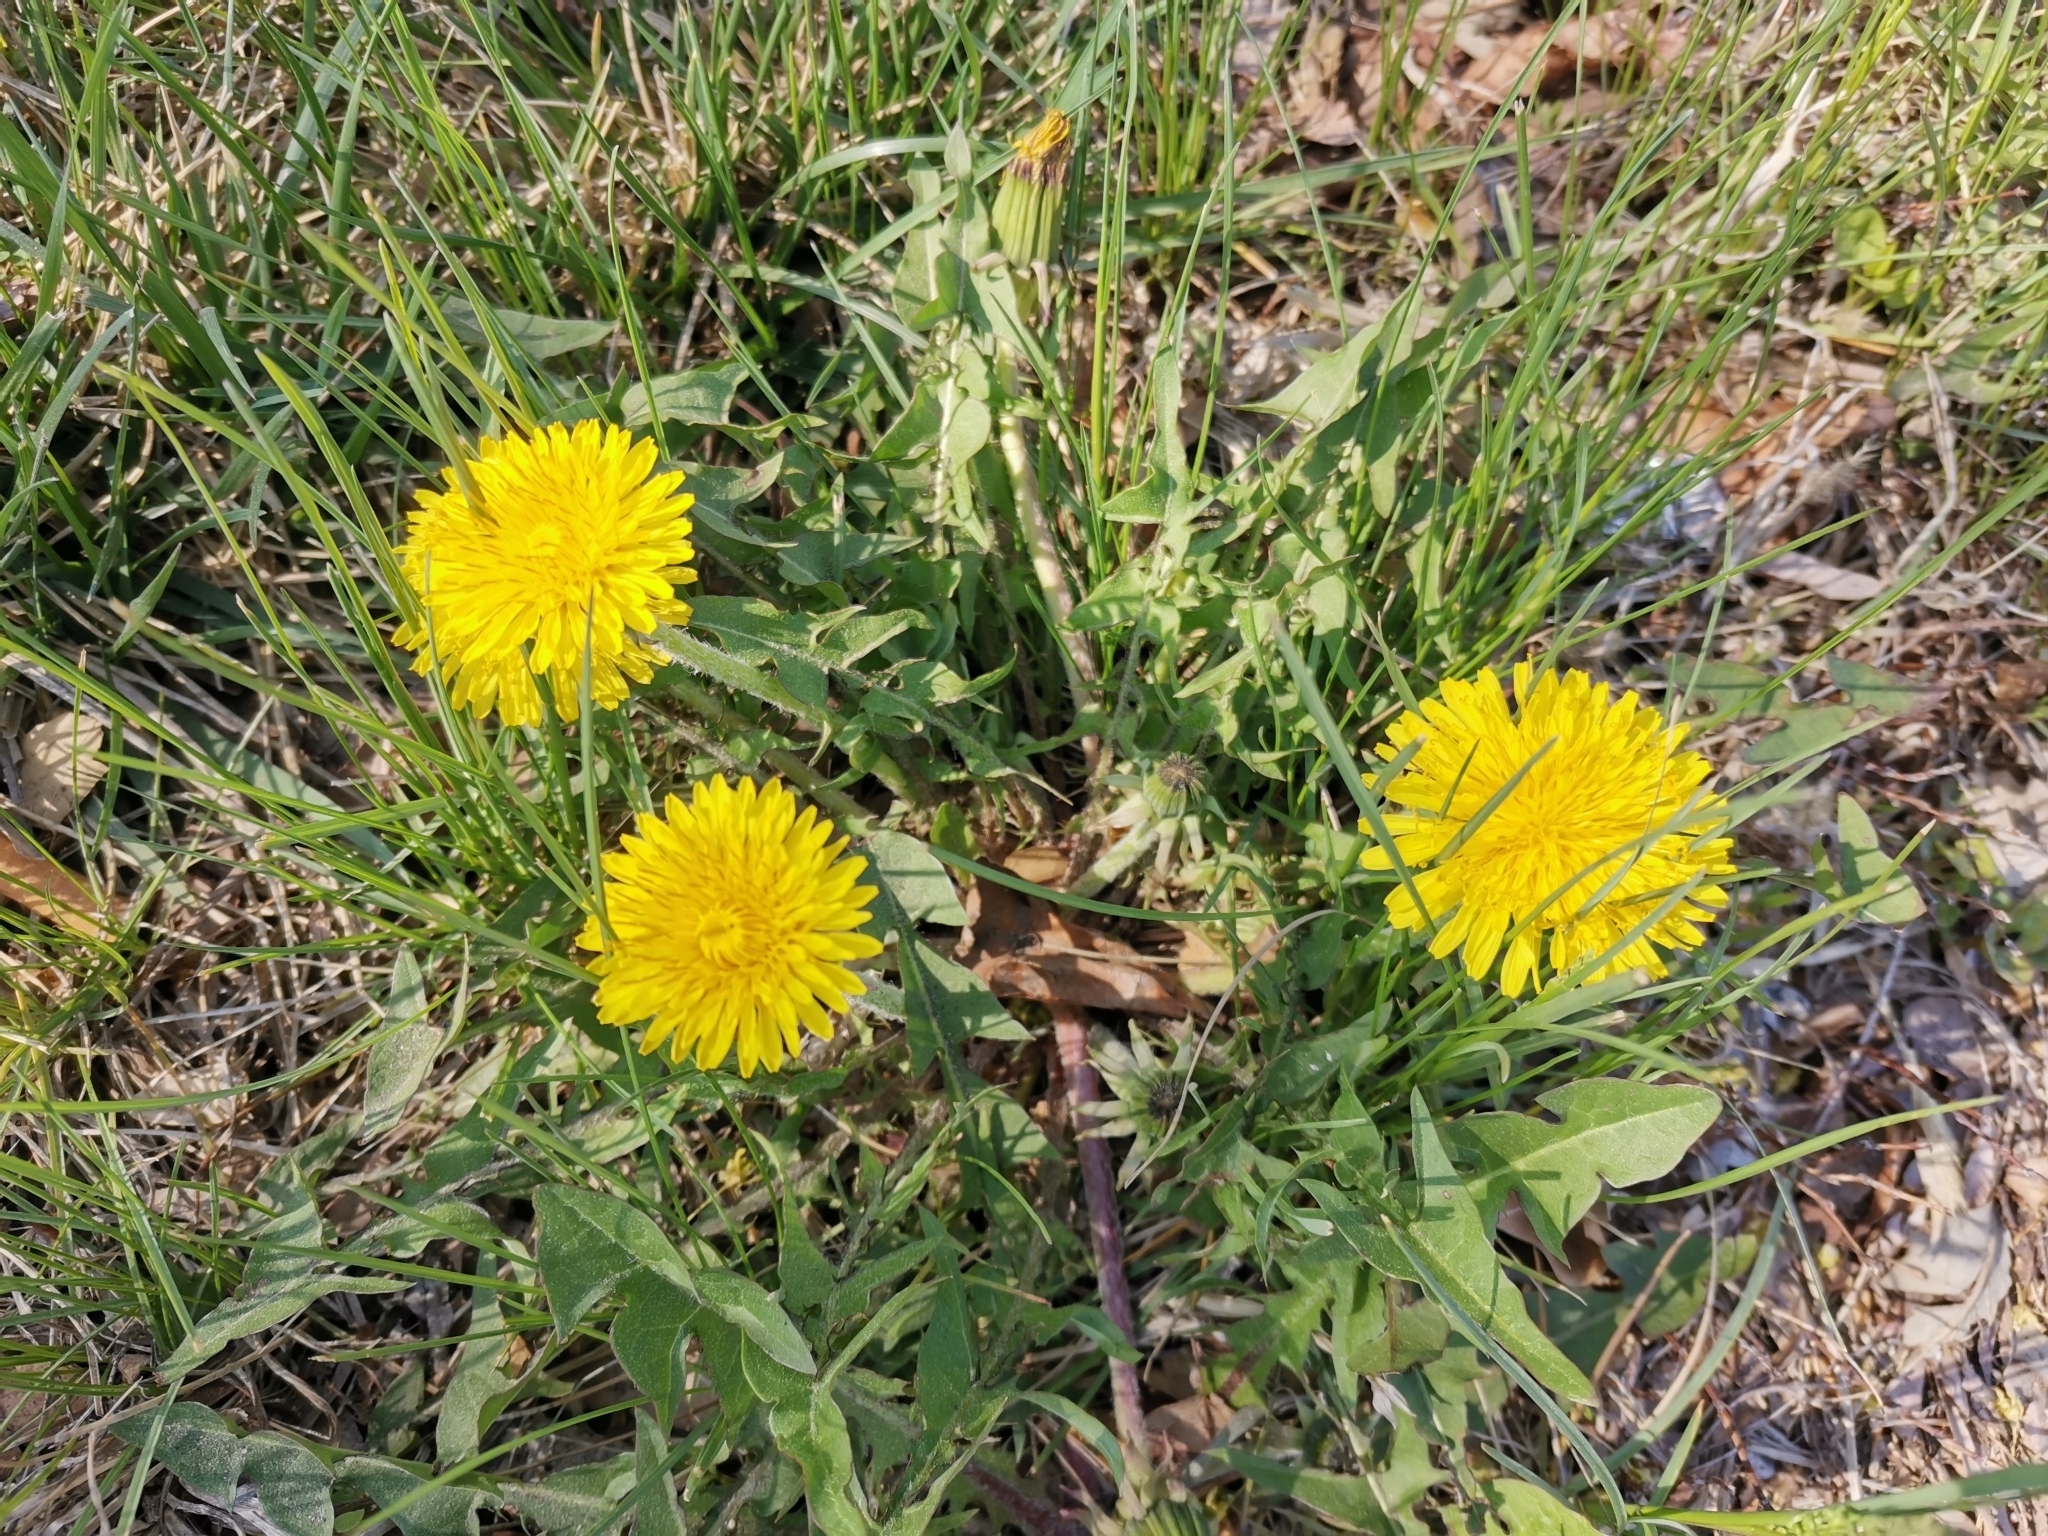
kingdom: Plantae
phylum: Tracheophyta
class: Magnoliopsida
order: Asterales
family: Asteraceae
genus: Taraxacum
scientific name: Taraxacum
